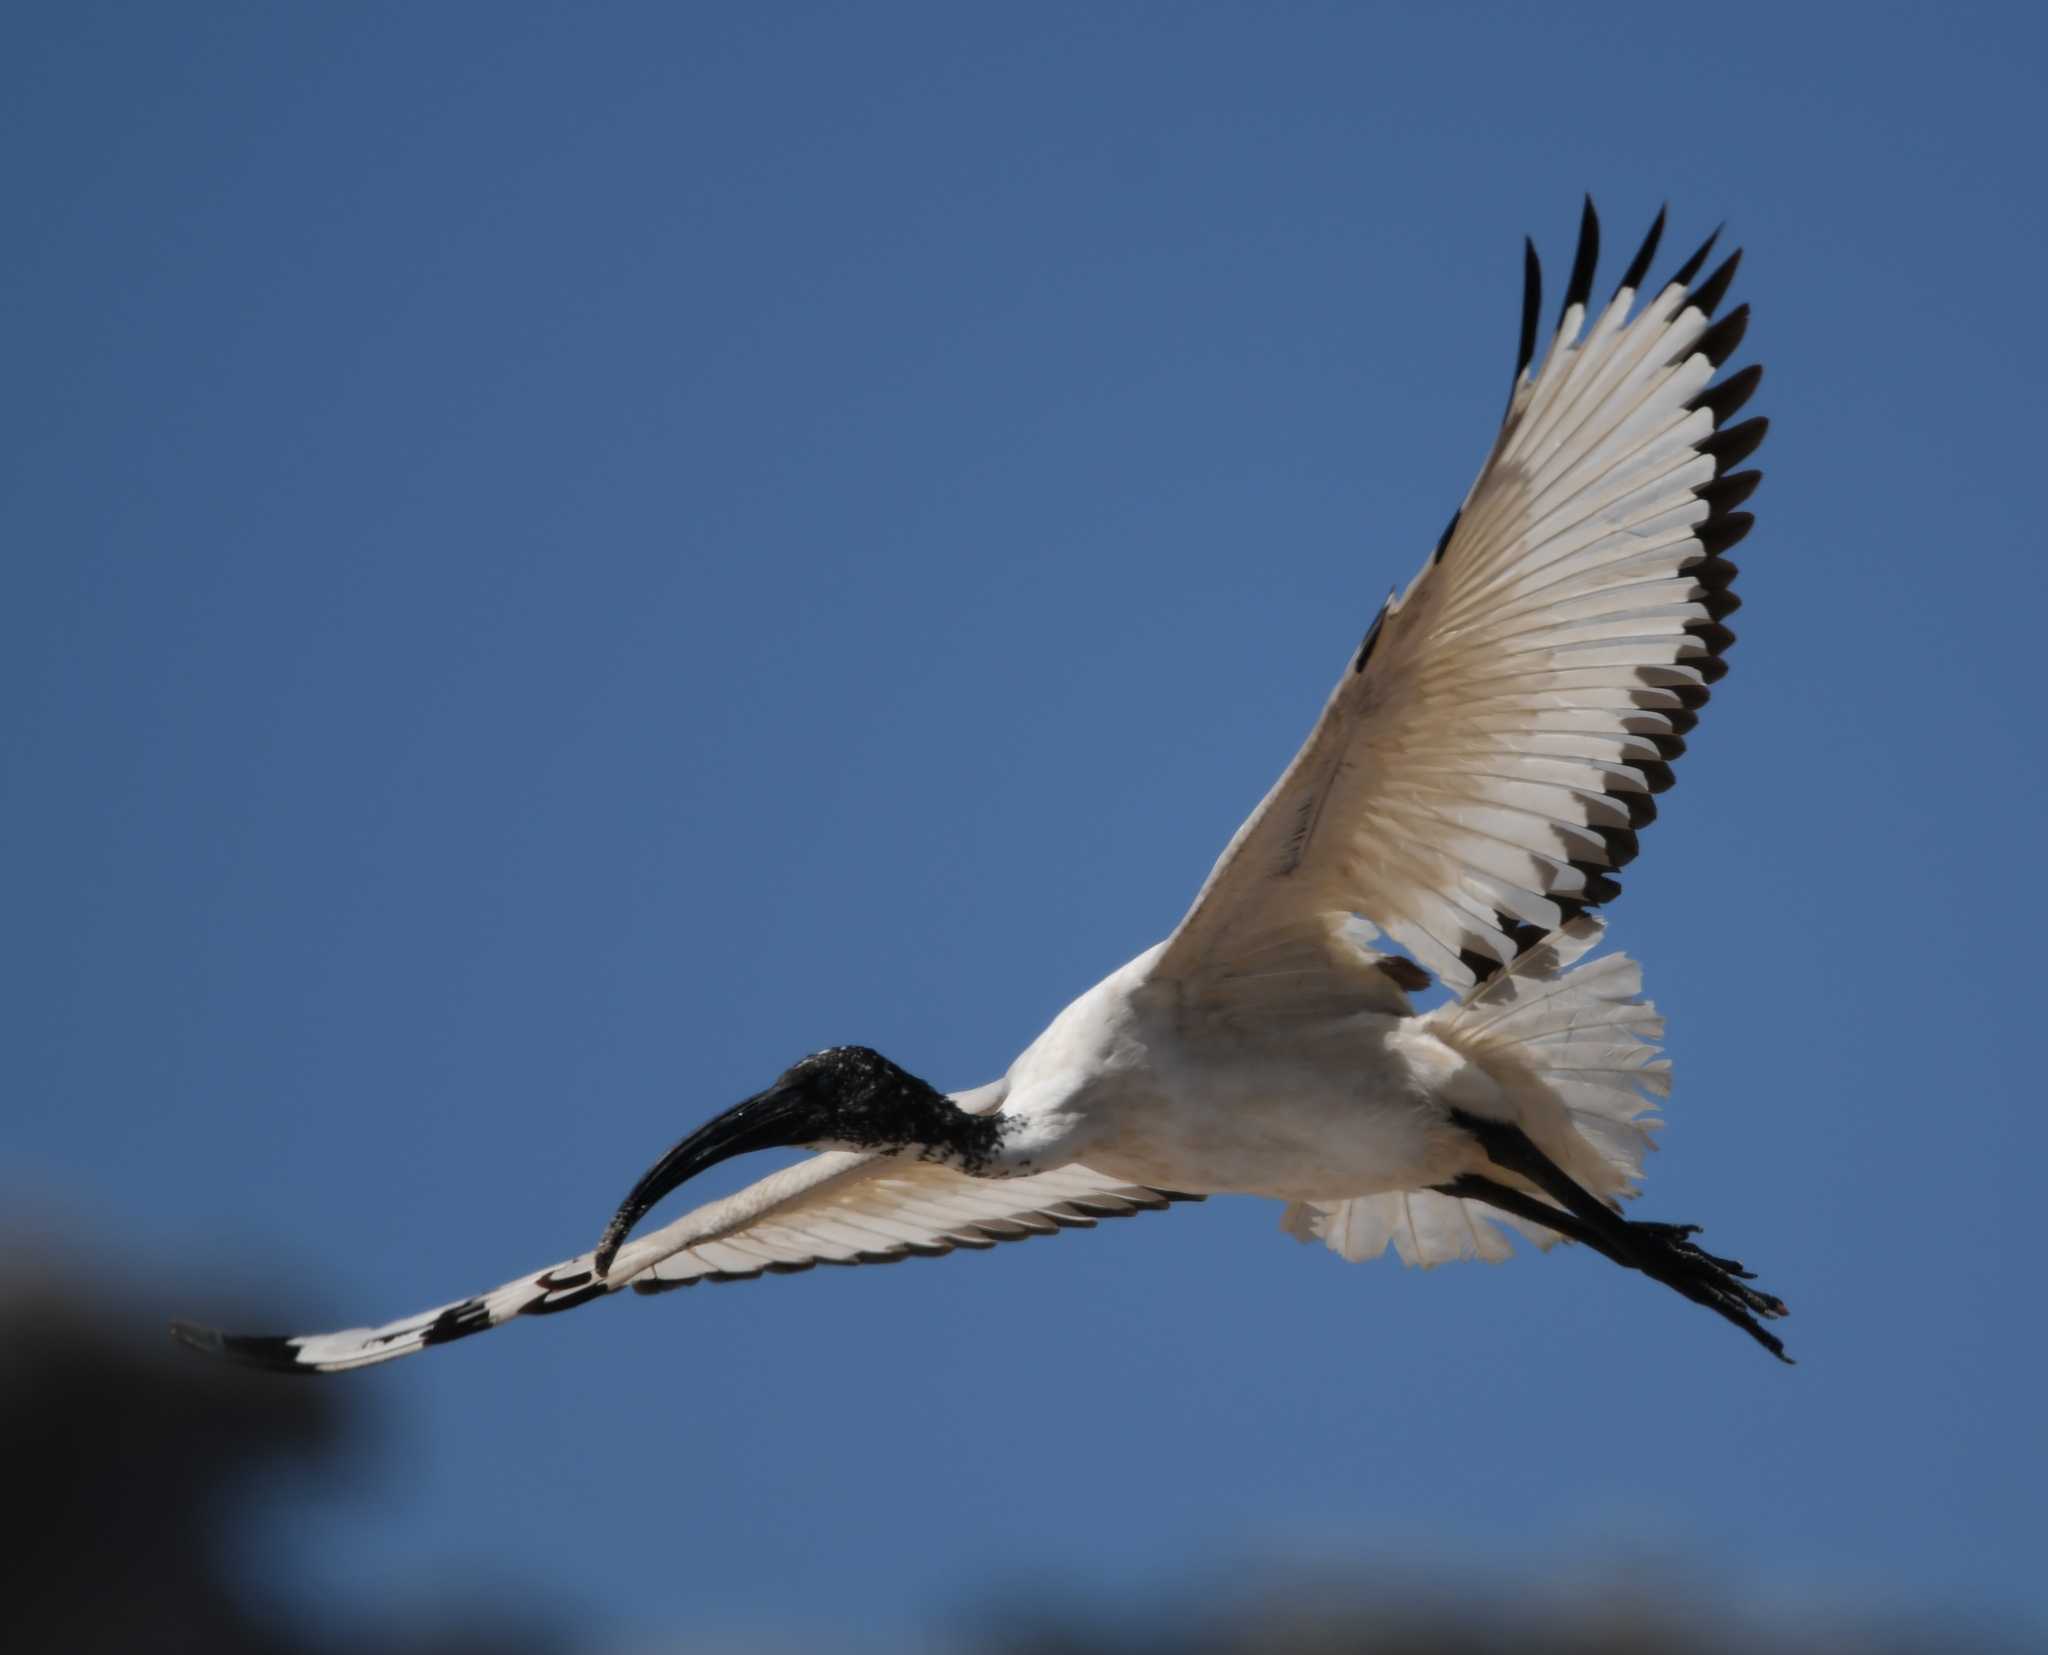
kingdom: Animalia
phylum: Chordata
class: Aves
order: Pelecaniformes
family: Threskiornithidae
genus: Threskiornis
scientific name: Threskiornis aethiopicus
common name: Sacred ibis
